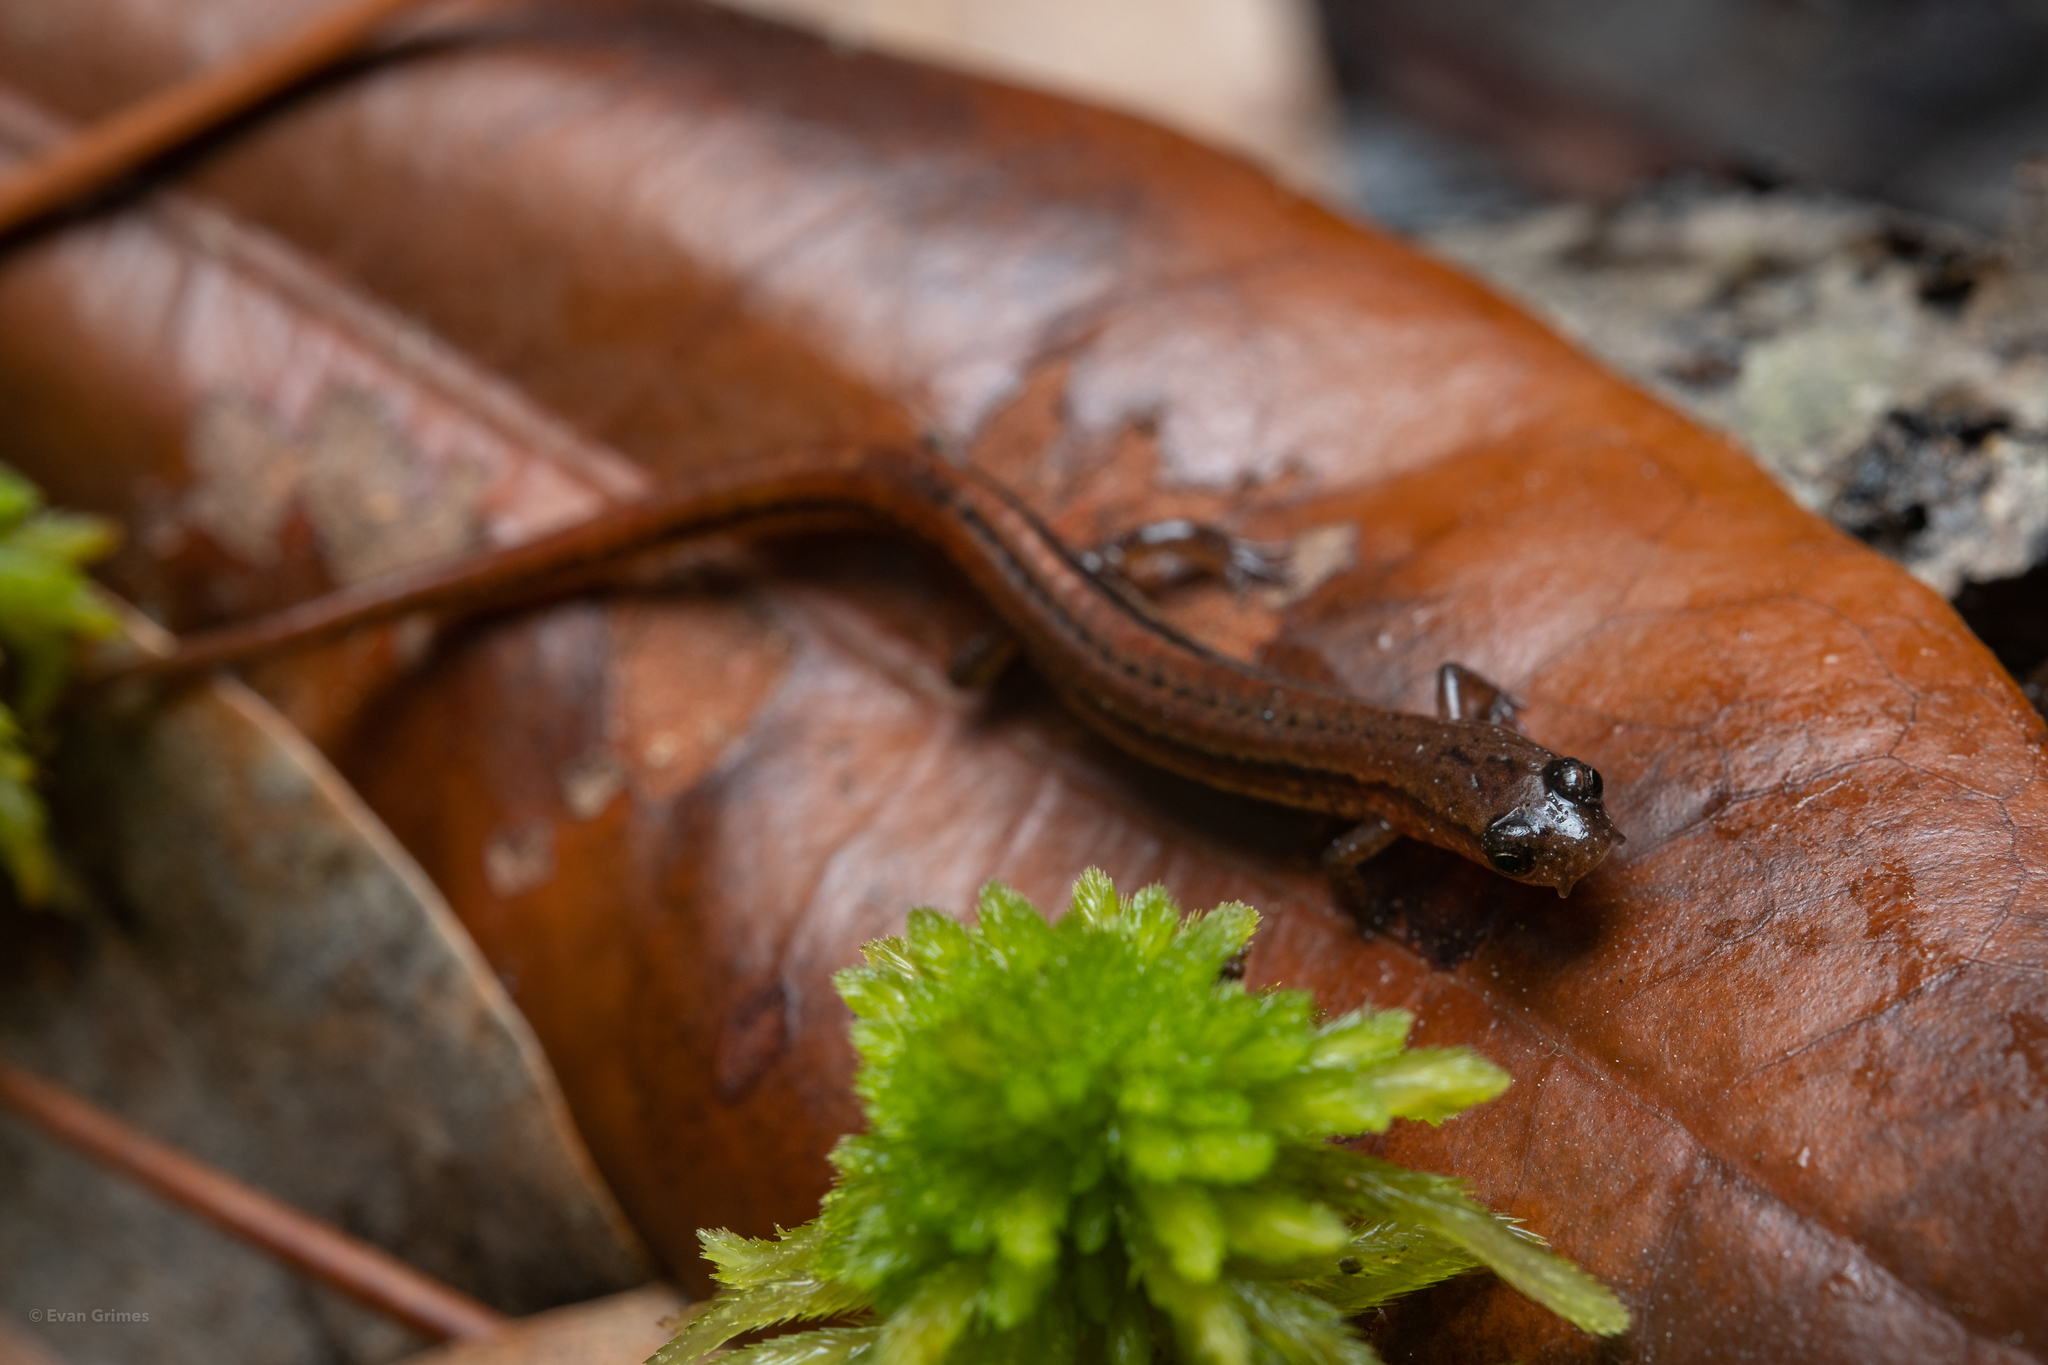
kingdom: Animalia
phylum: Chordata
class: Amphibia
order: Caudata
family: Plethodontidae
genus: Eurycea
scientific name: Eurycea sphagnicola
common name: Bog dwarf salamander
